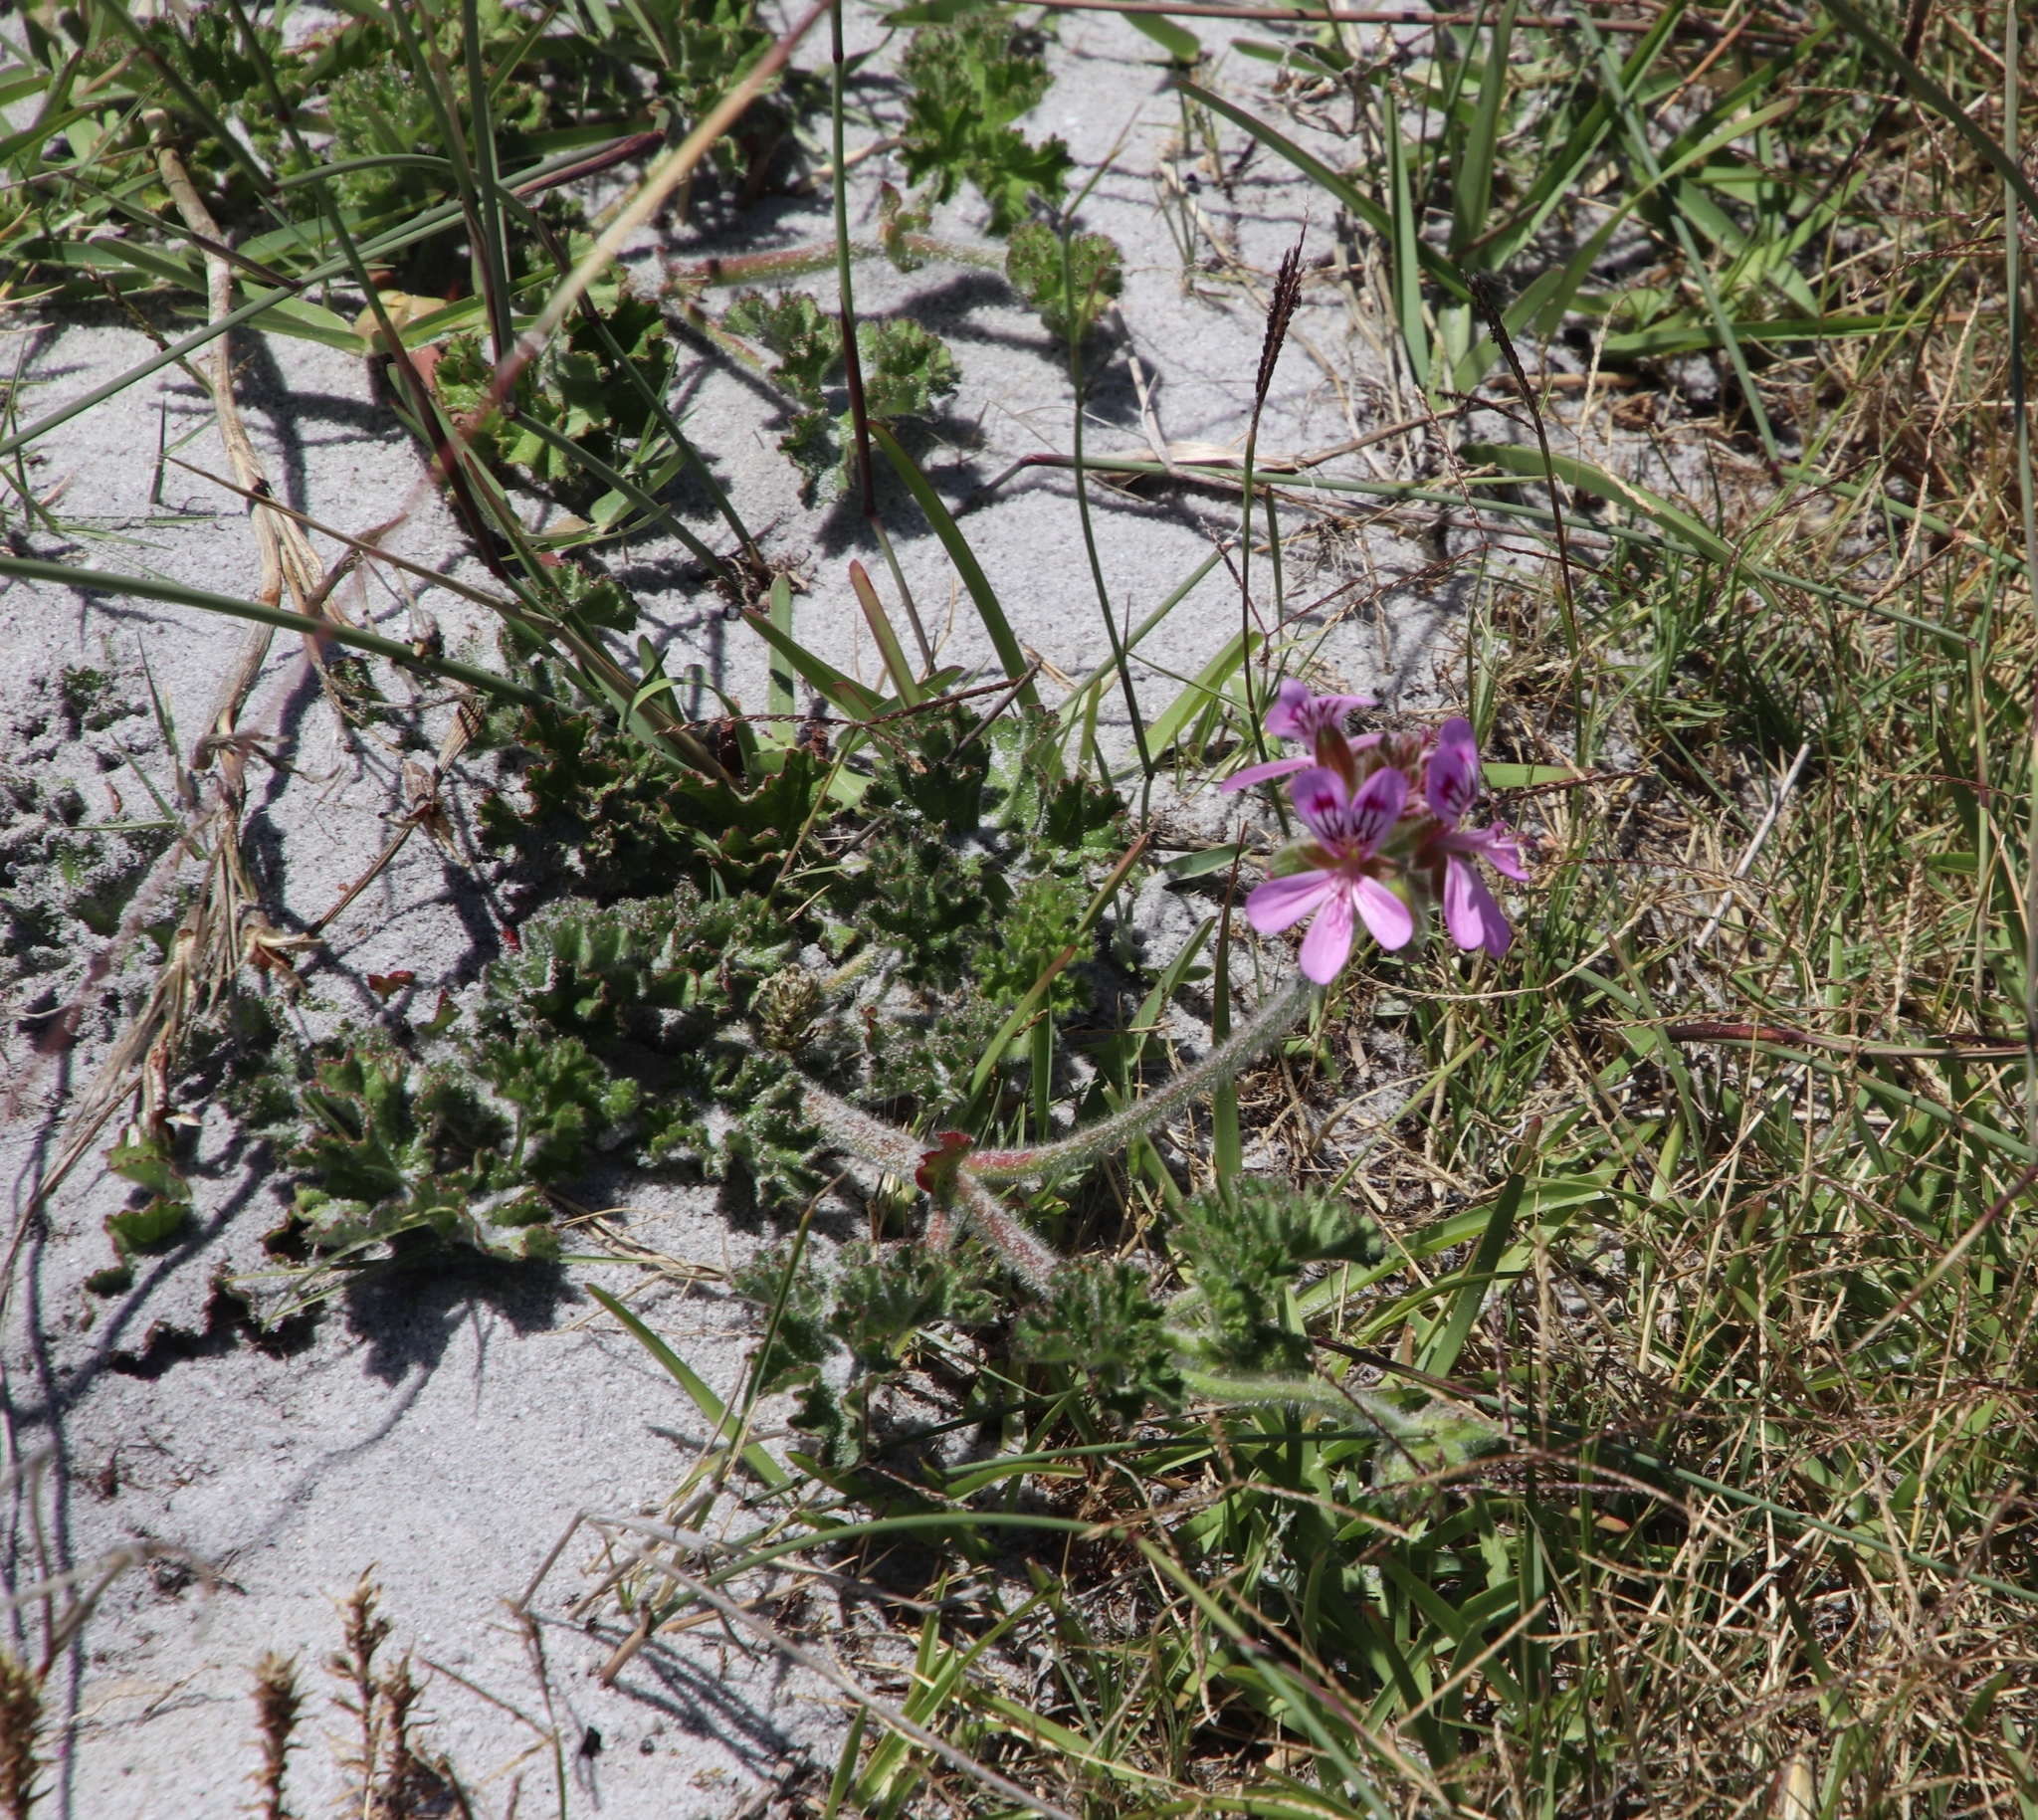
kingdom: Plantae
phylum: Tracheophyta
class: Magnoliopsida
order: Geraniales
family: Geraniaceae
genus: Pelargonium
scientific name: Pelargonium capitatum
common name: Rose scented geranium
